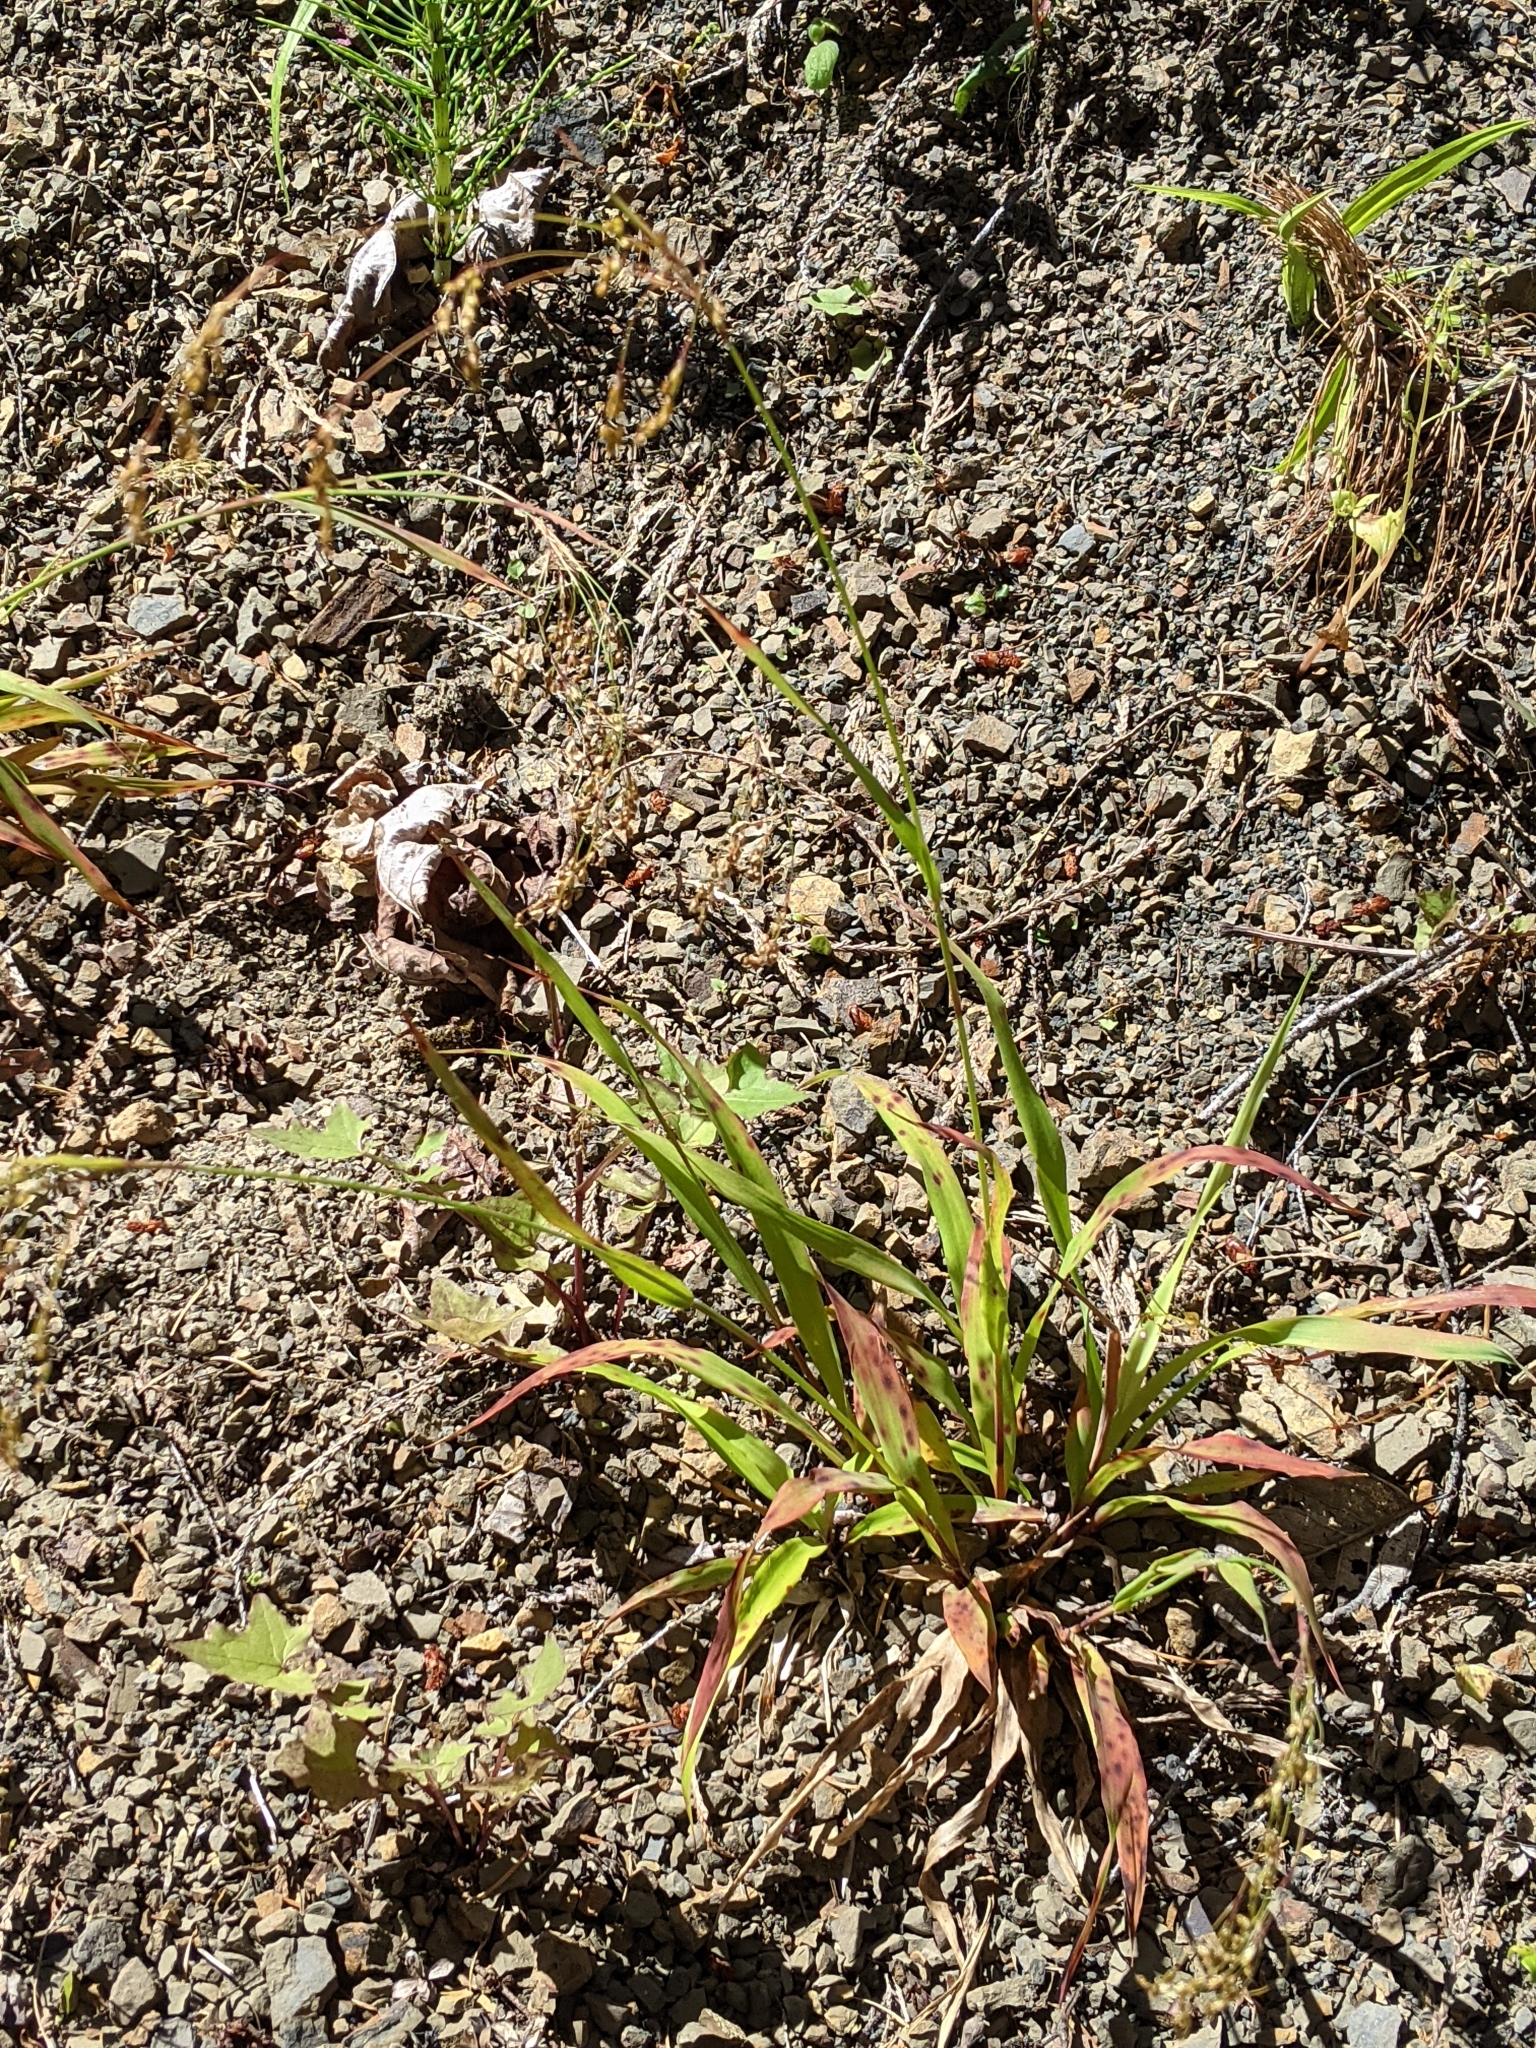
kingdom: Plantae
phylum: Tracheophyta
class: Liliopsida
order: Poales
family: Juncaceae
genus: Luzula
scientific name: Luzula parviflora
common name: Millet woodrush
